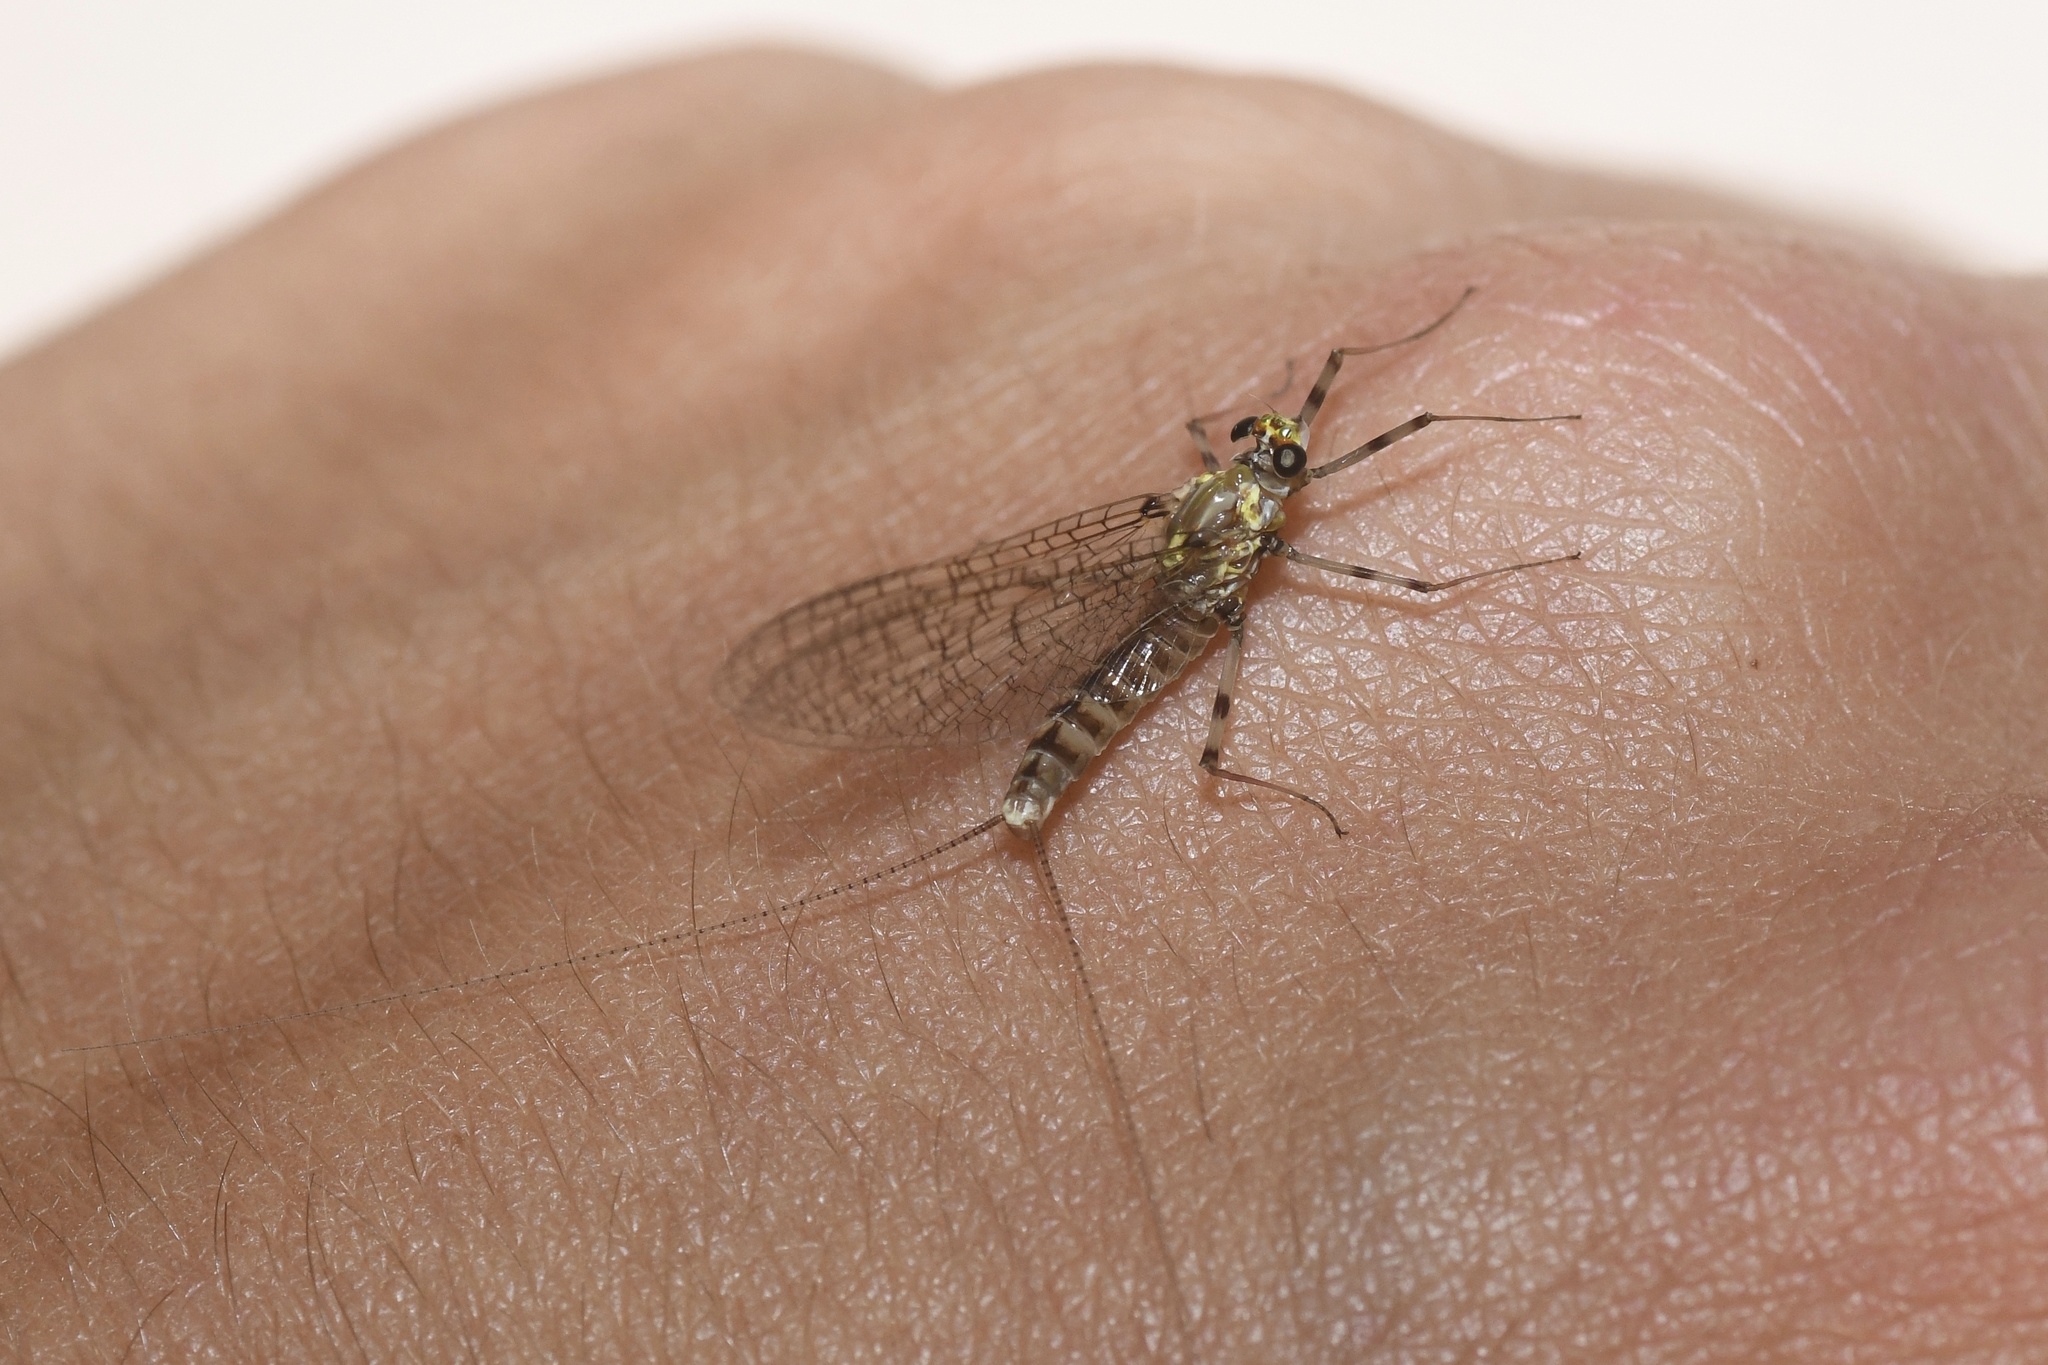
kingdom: Animalia
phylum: Arthropoda
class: Insecta
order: Ephemeroptera
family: Heptageniidae
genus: Maccaffertium
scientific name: Maccaffertium vicarium
